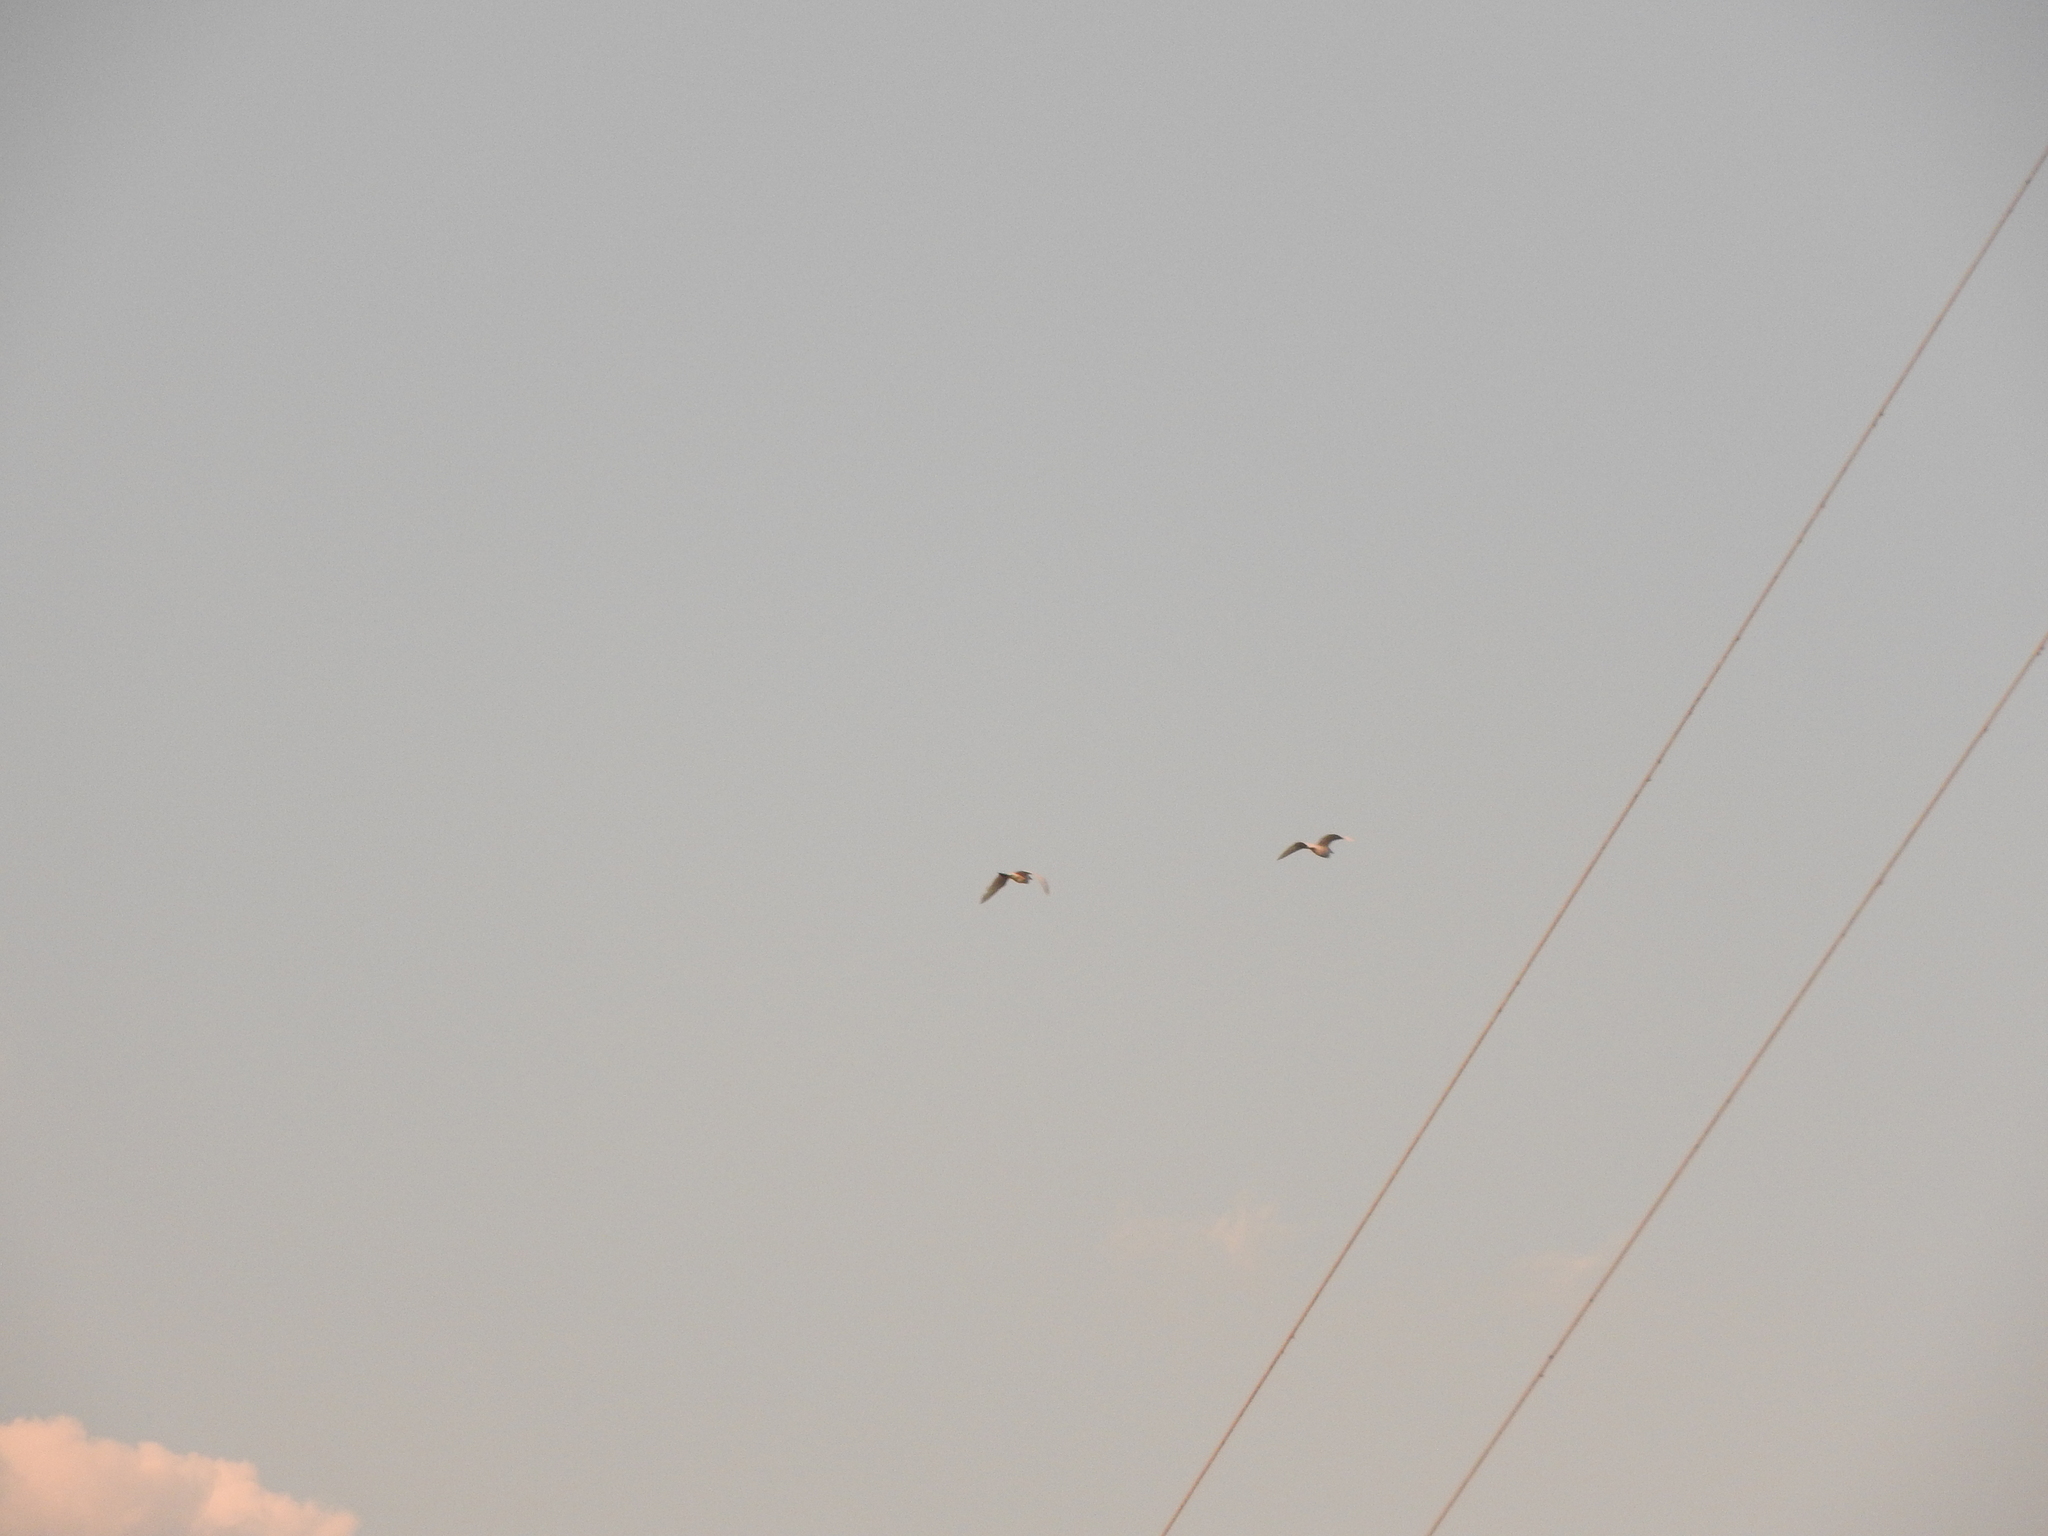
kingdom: Animalia
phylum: Chordata
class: Aves
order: Pelecaniformes
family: Ardeidae
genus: Bubulcus
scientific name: Bubulcus ibis
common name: Cattle egret
